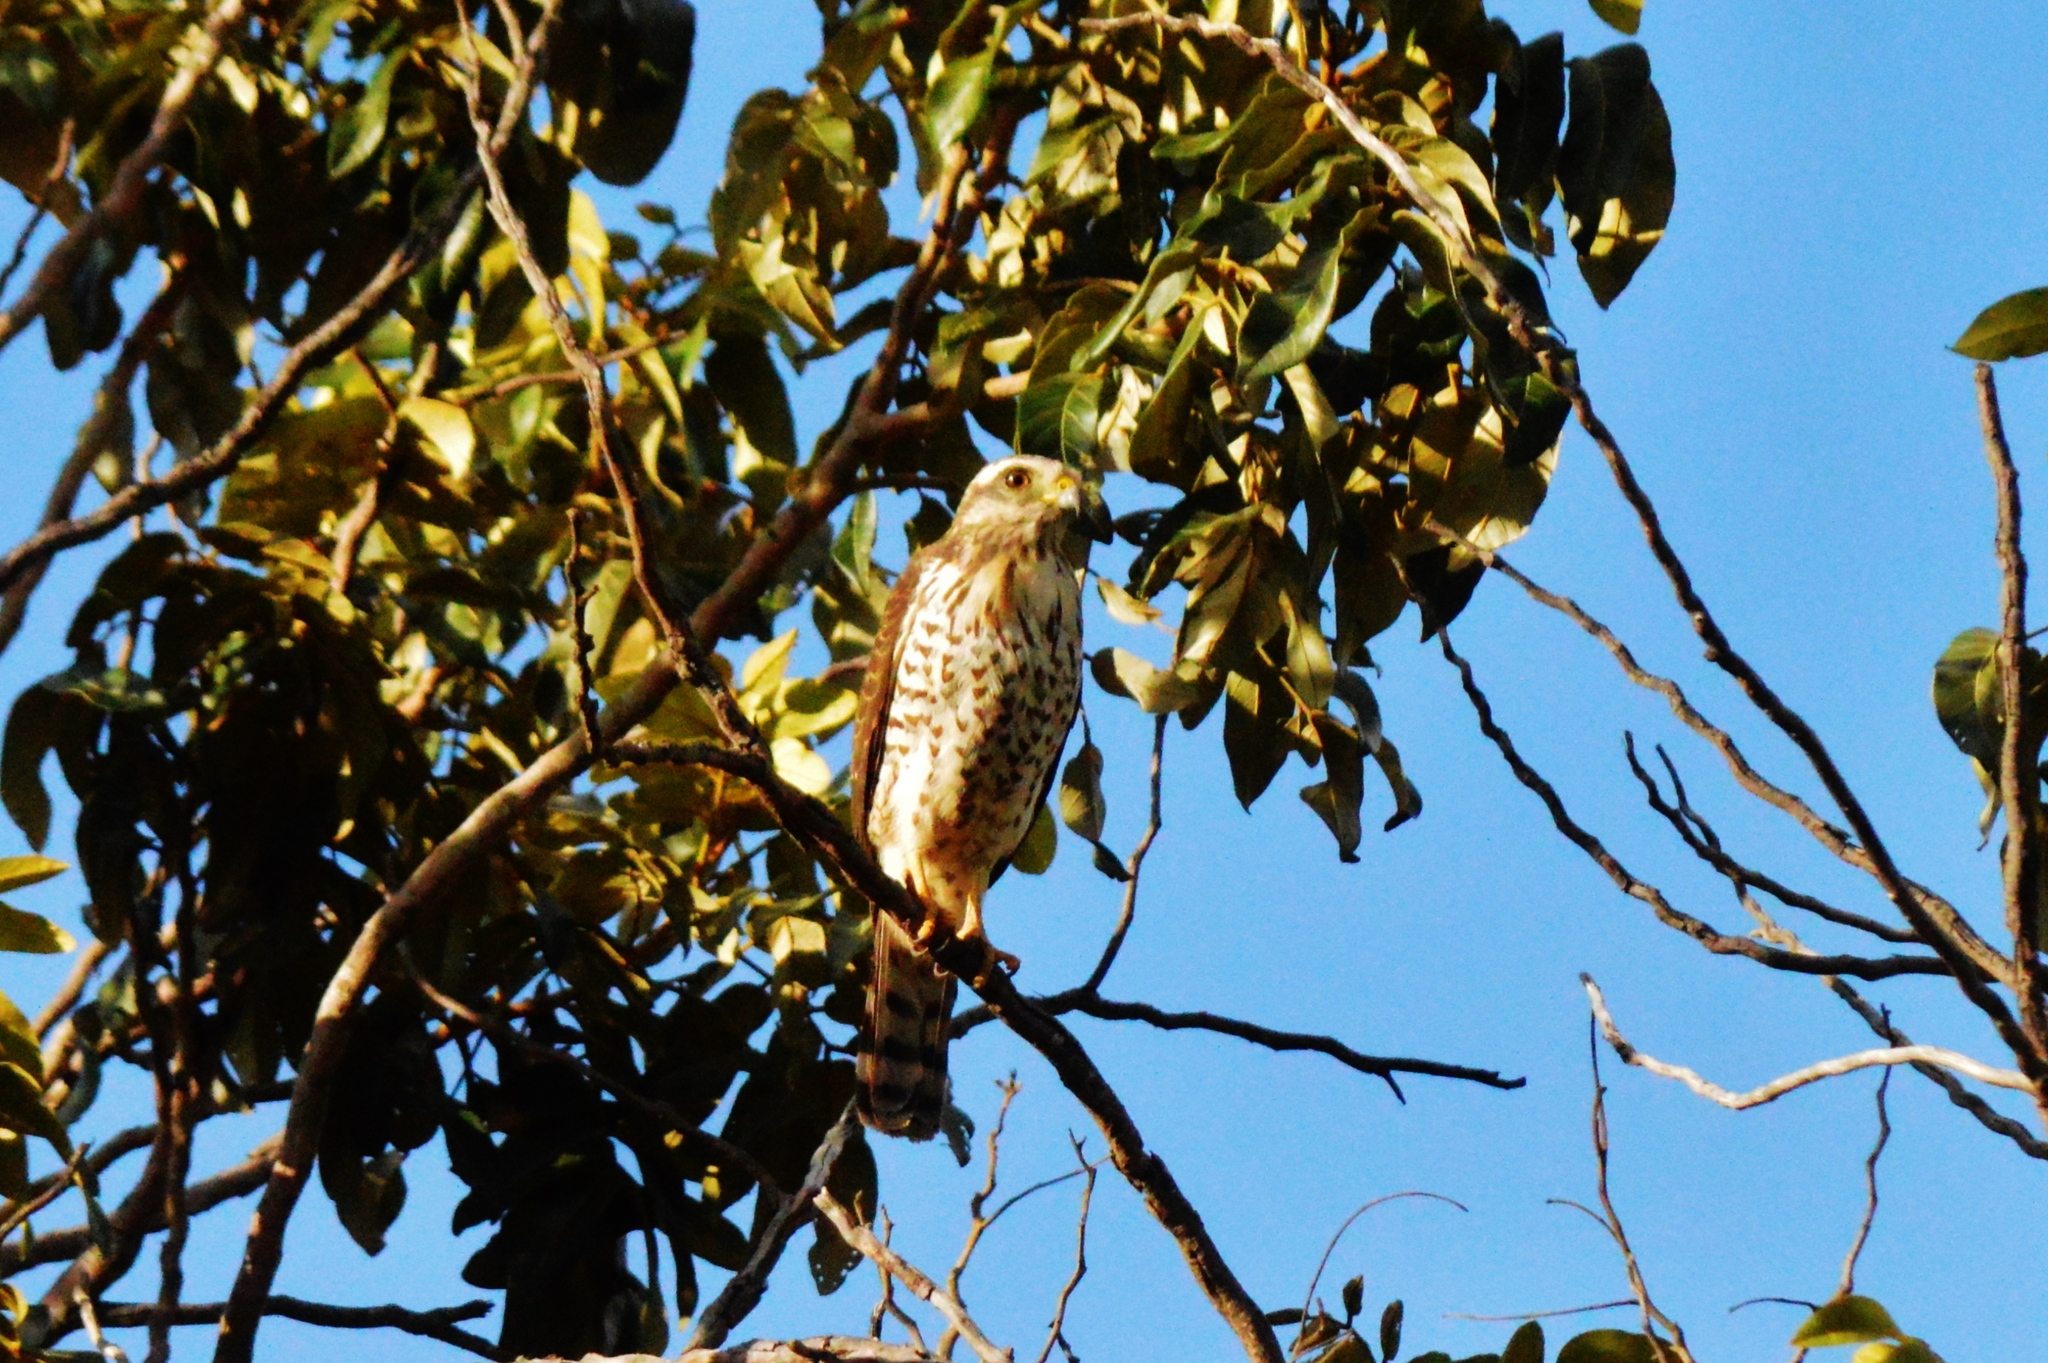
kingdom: Animalia
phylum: Chordata
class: Aves
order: Accipitriformes
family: Accipitridae
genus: Rupornis
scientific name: Rupornis magnirostris
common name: Roadside hawk
